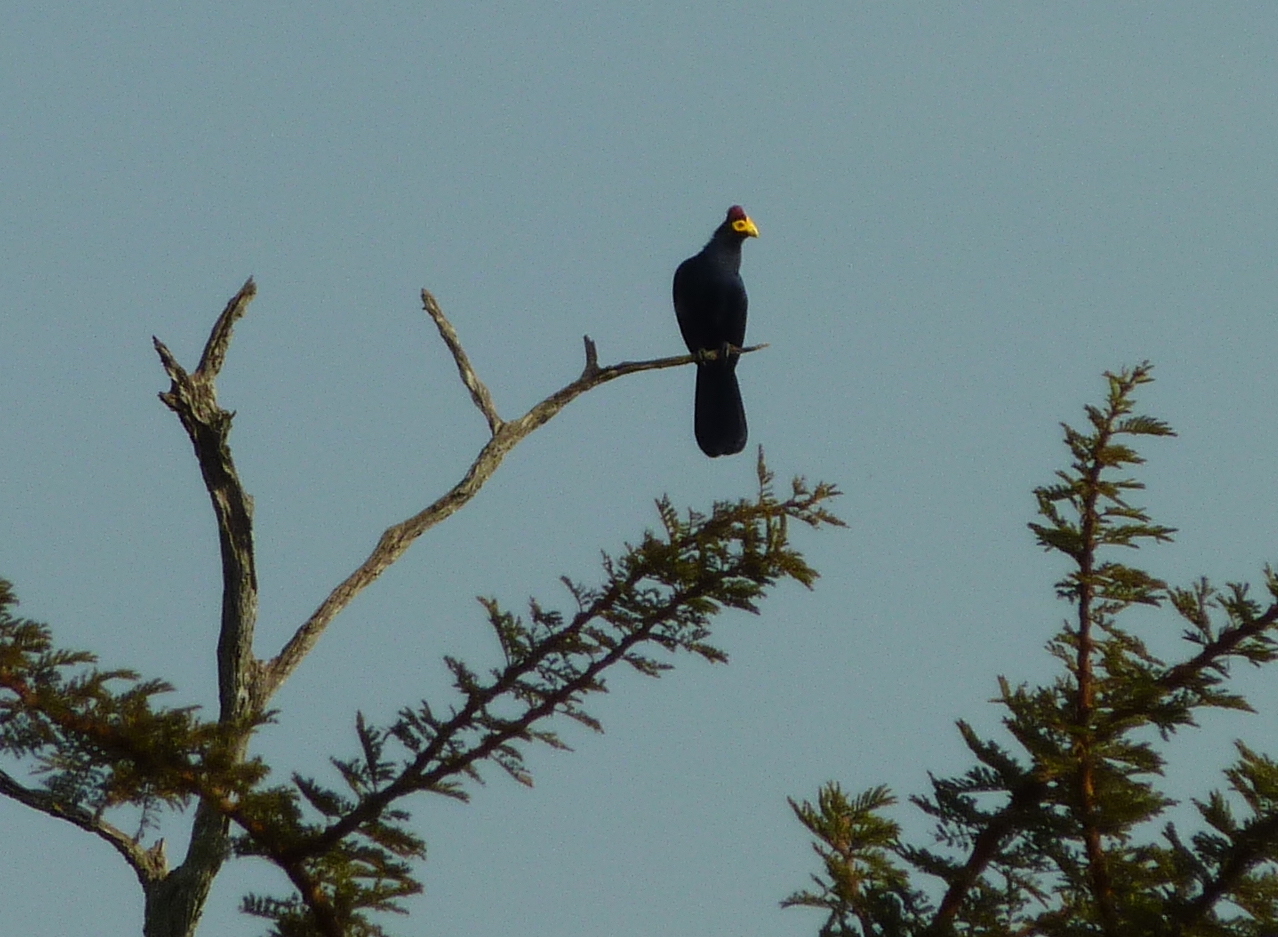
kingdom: Animalia
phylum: Chordata
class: Aves
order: Musophagiformes
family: Musophagidae
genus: Musophaga
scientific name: Musophaga rossae
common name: Ross's turaco
